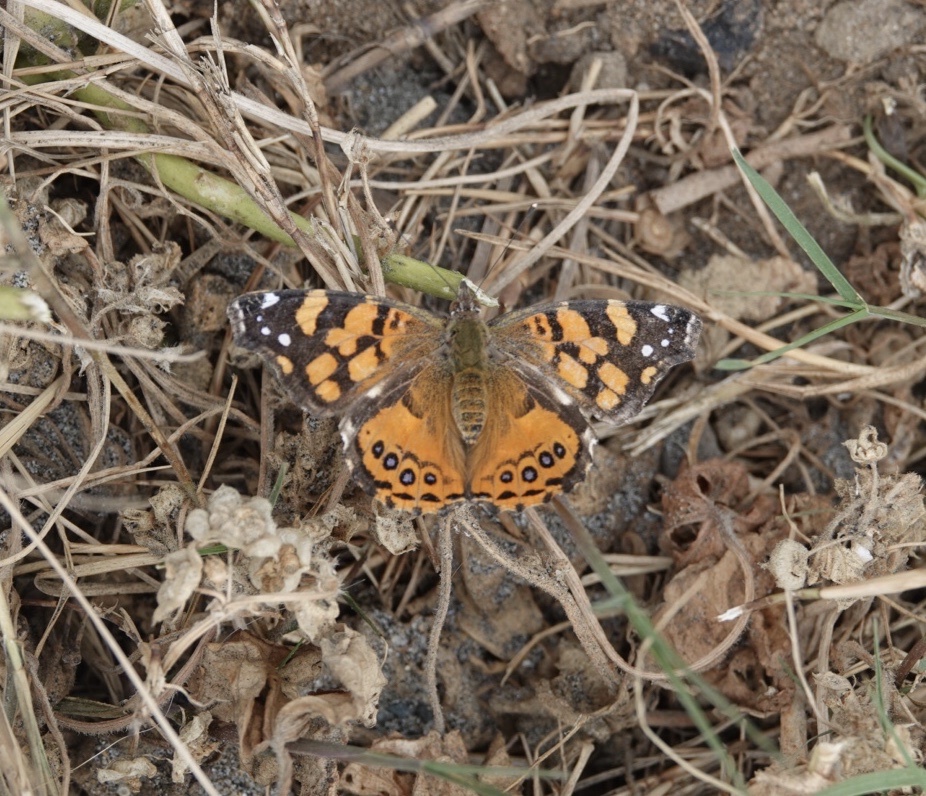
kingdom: Animalia
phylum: Arthropoda
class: Insecta
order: Lepidoptera
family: Nymphalidae
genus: Vanessa
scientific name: Vanessa annabella
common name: West coast lady
